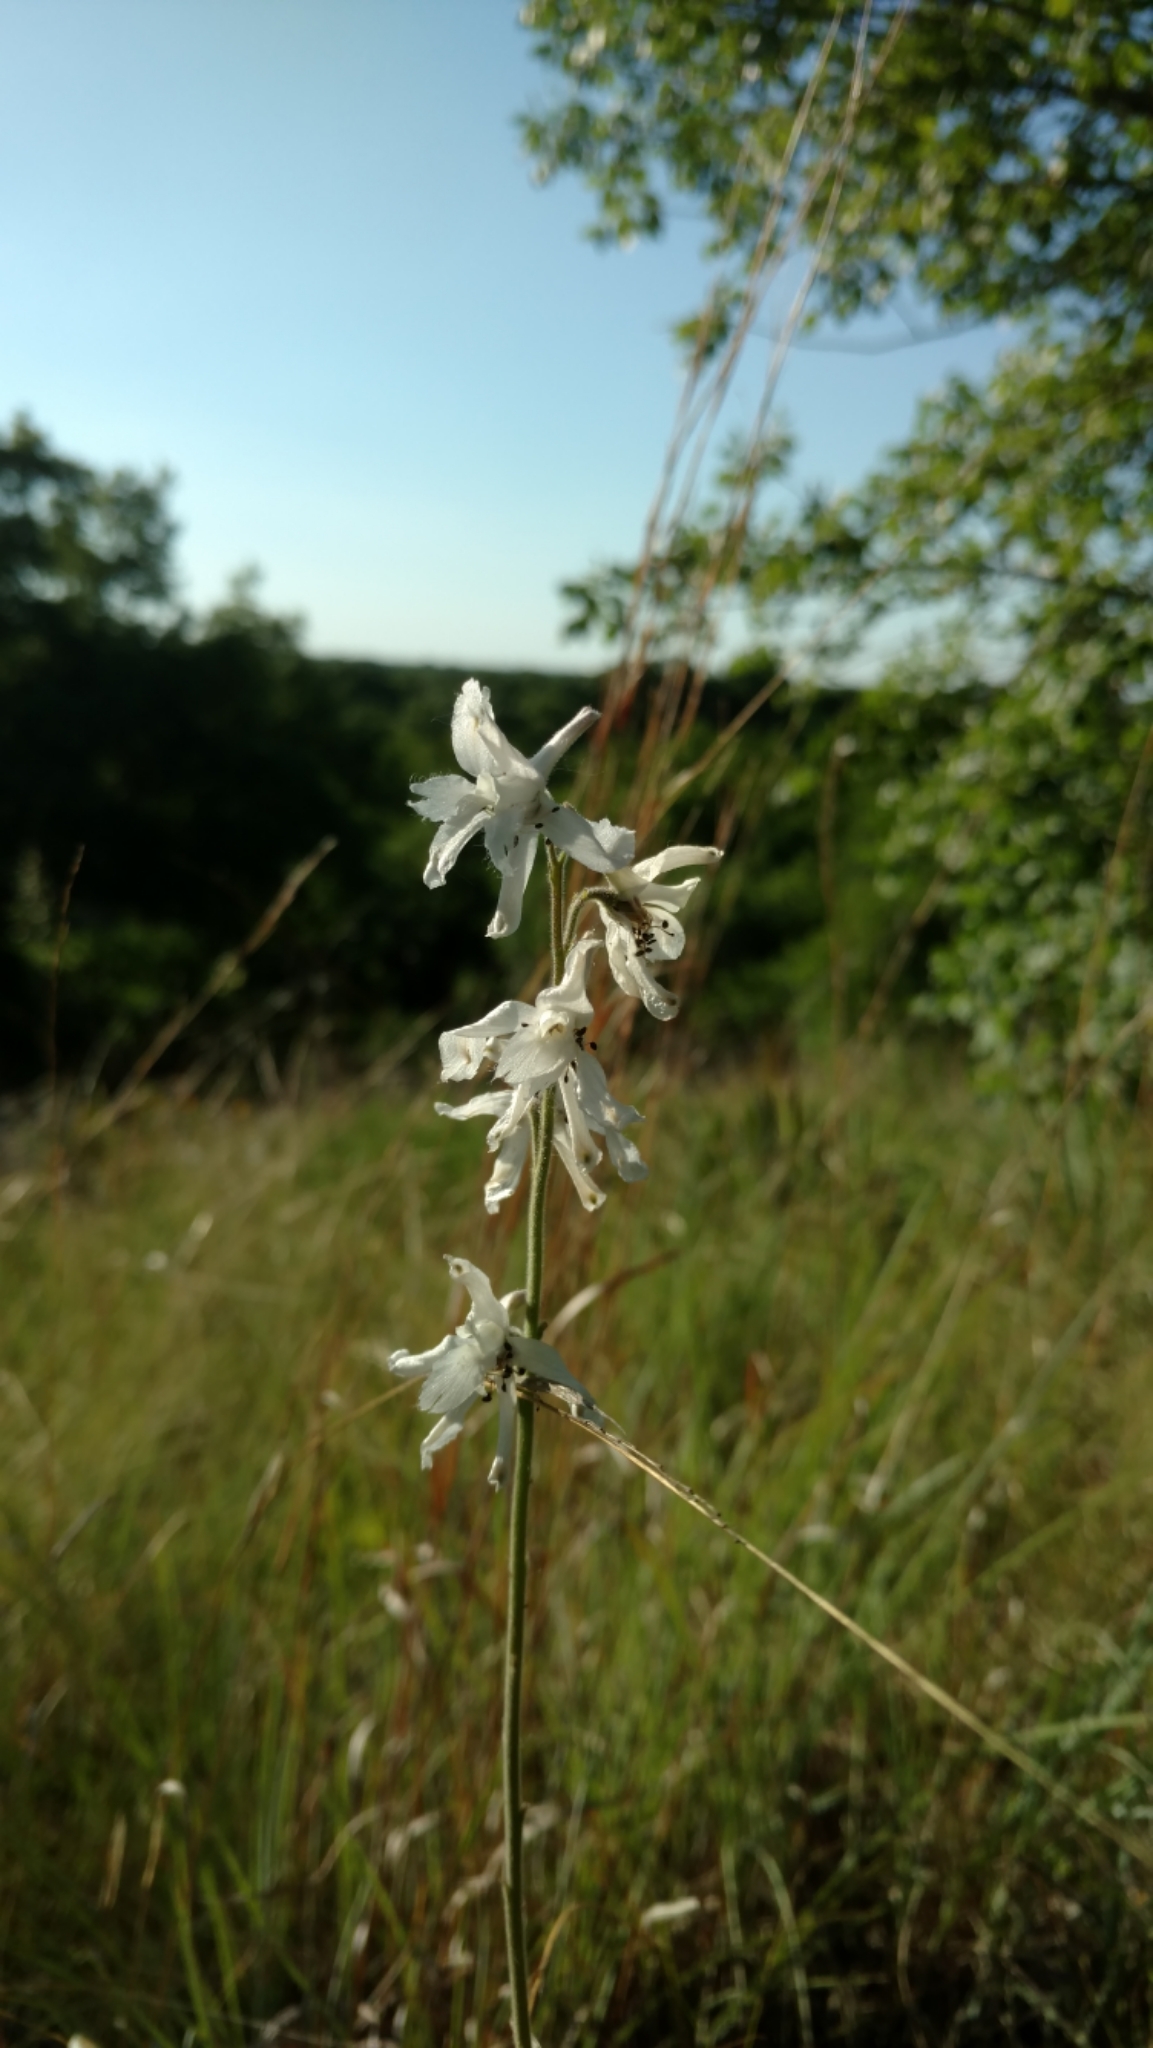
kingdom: Plantae
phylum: Tracheophyta
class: Magnoliopsida
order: Ranunculales
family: Ranunculaceae
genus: Delphinium
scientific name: Delphinium carolinianum
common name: Carolina larkspur
